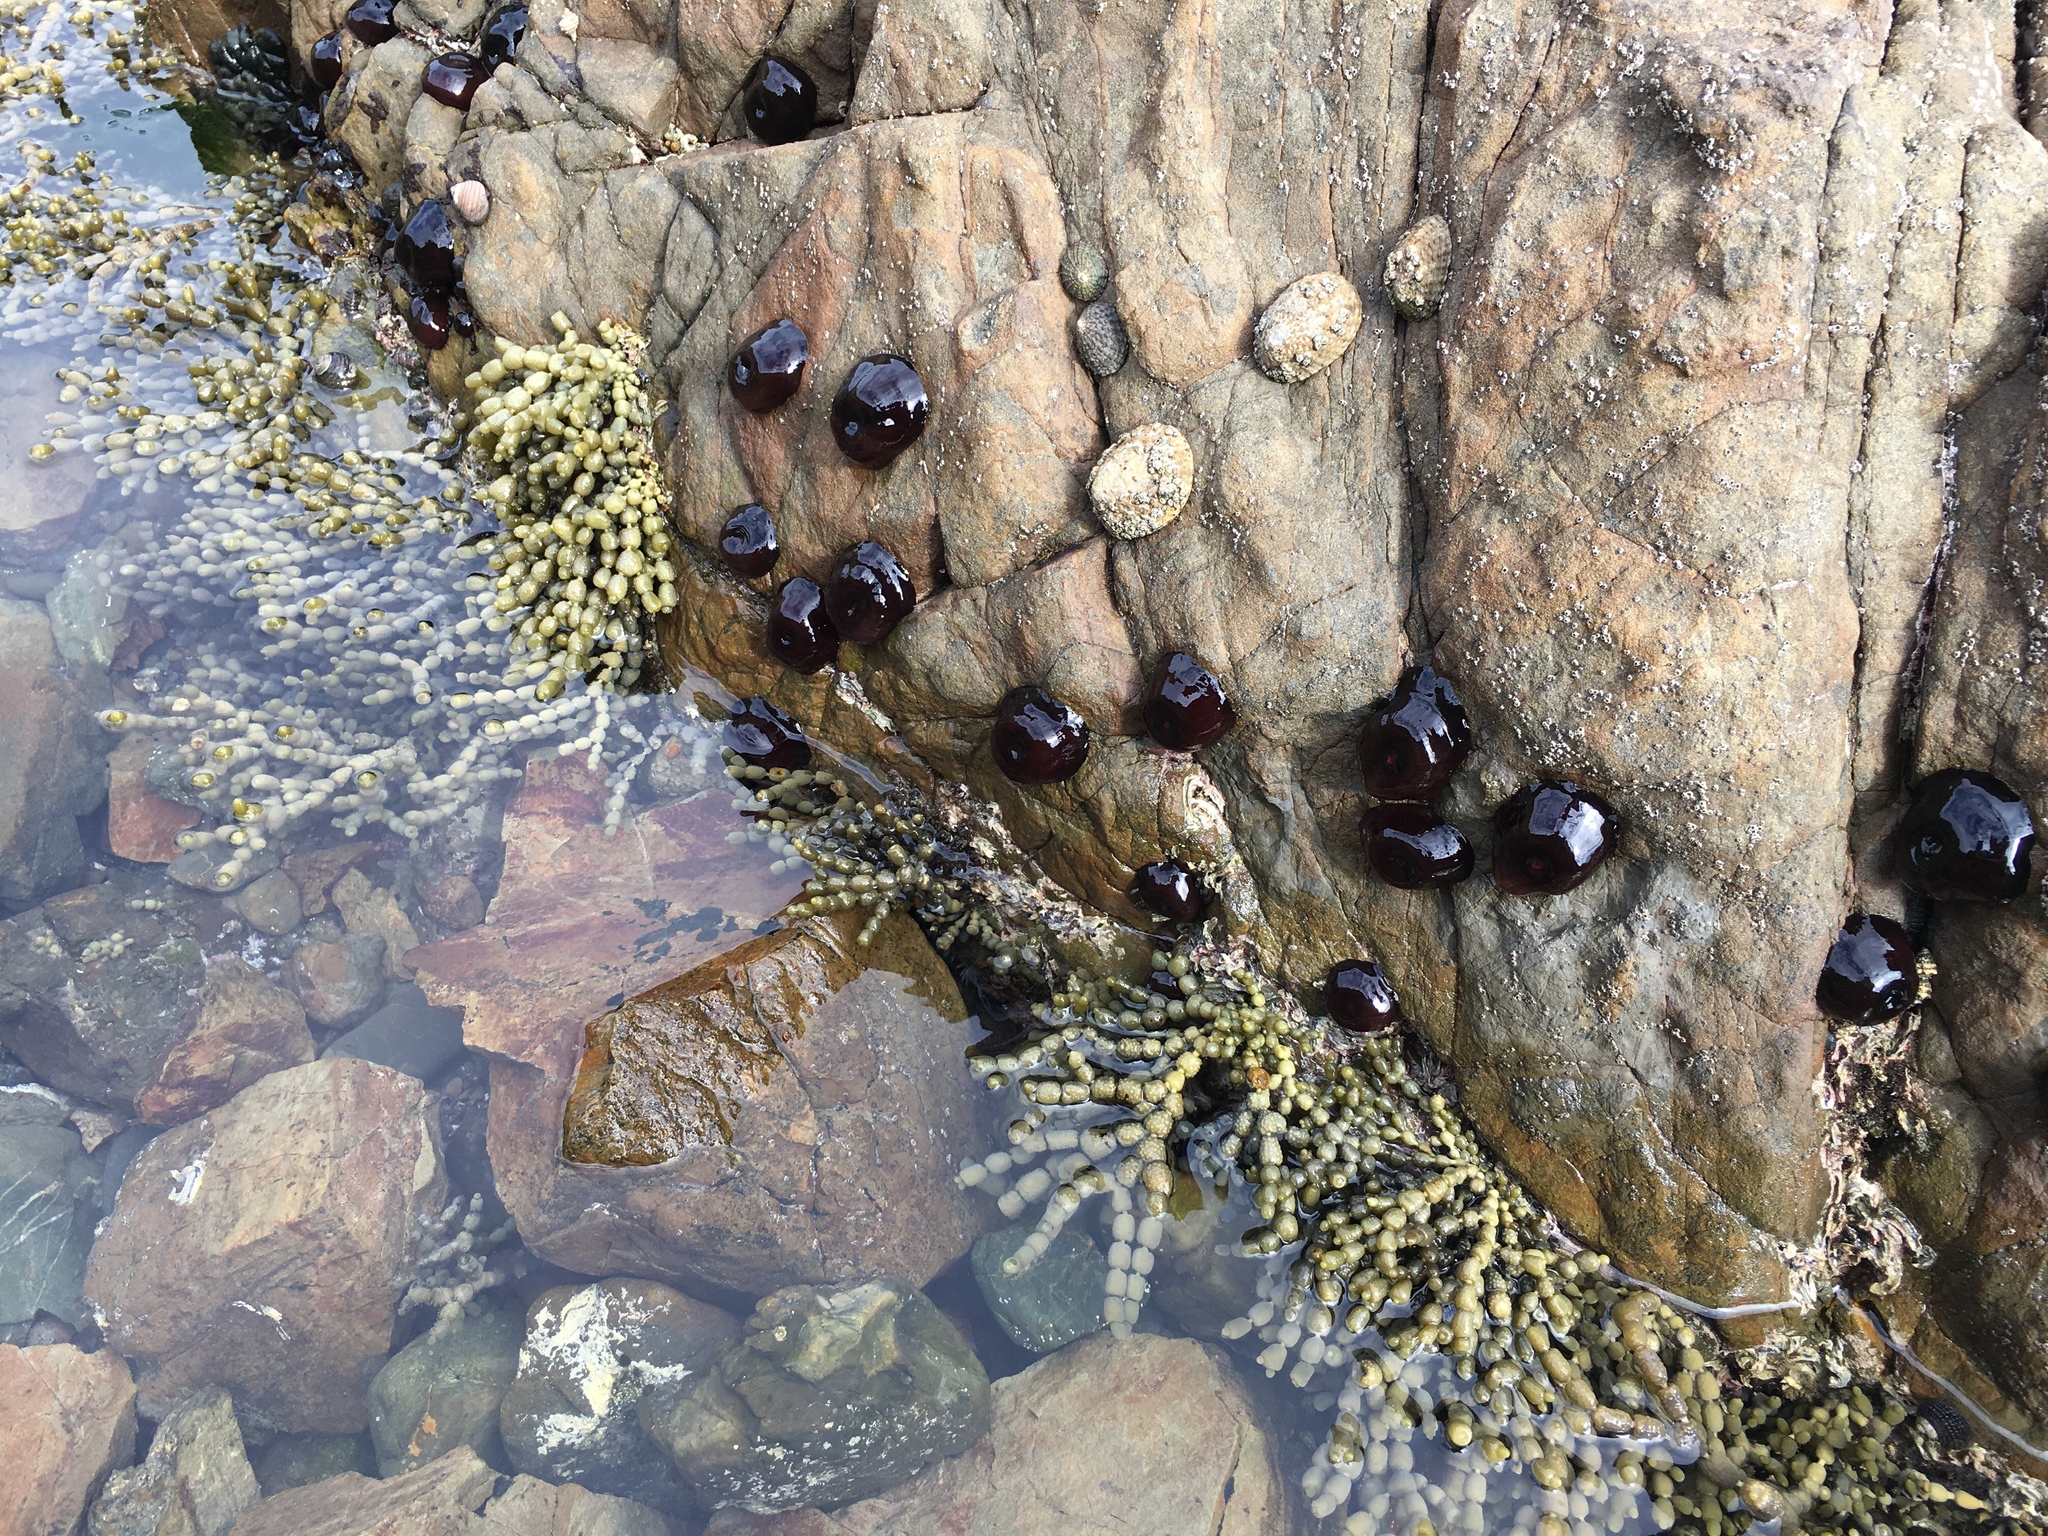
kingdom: Animalia
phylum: Cnidaria
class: Anthozoa
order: Actiniaria
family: Actiniidae
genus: Actinia
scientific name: Actinia tenebrosa
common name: Waratah anemone
